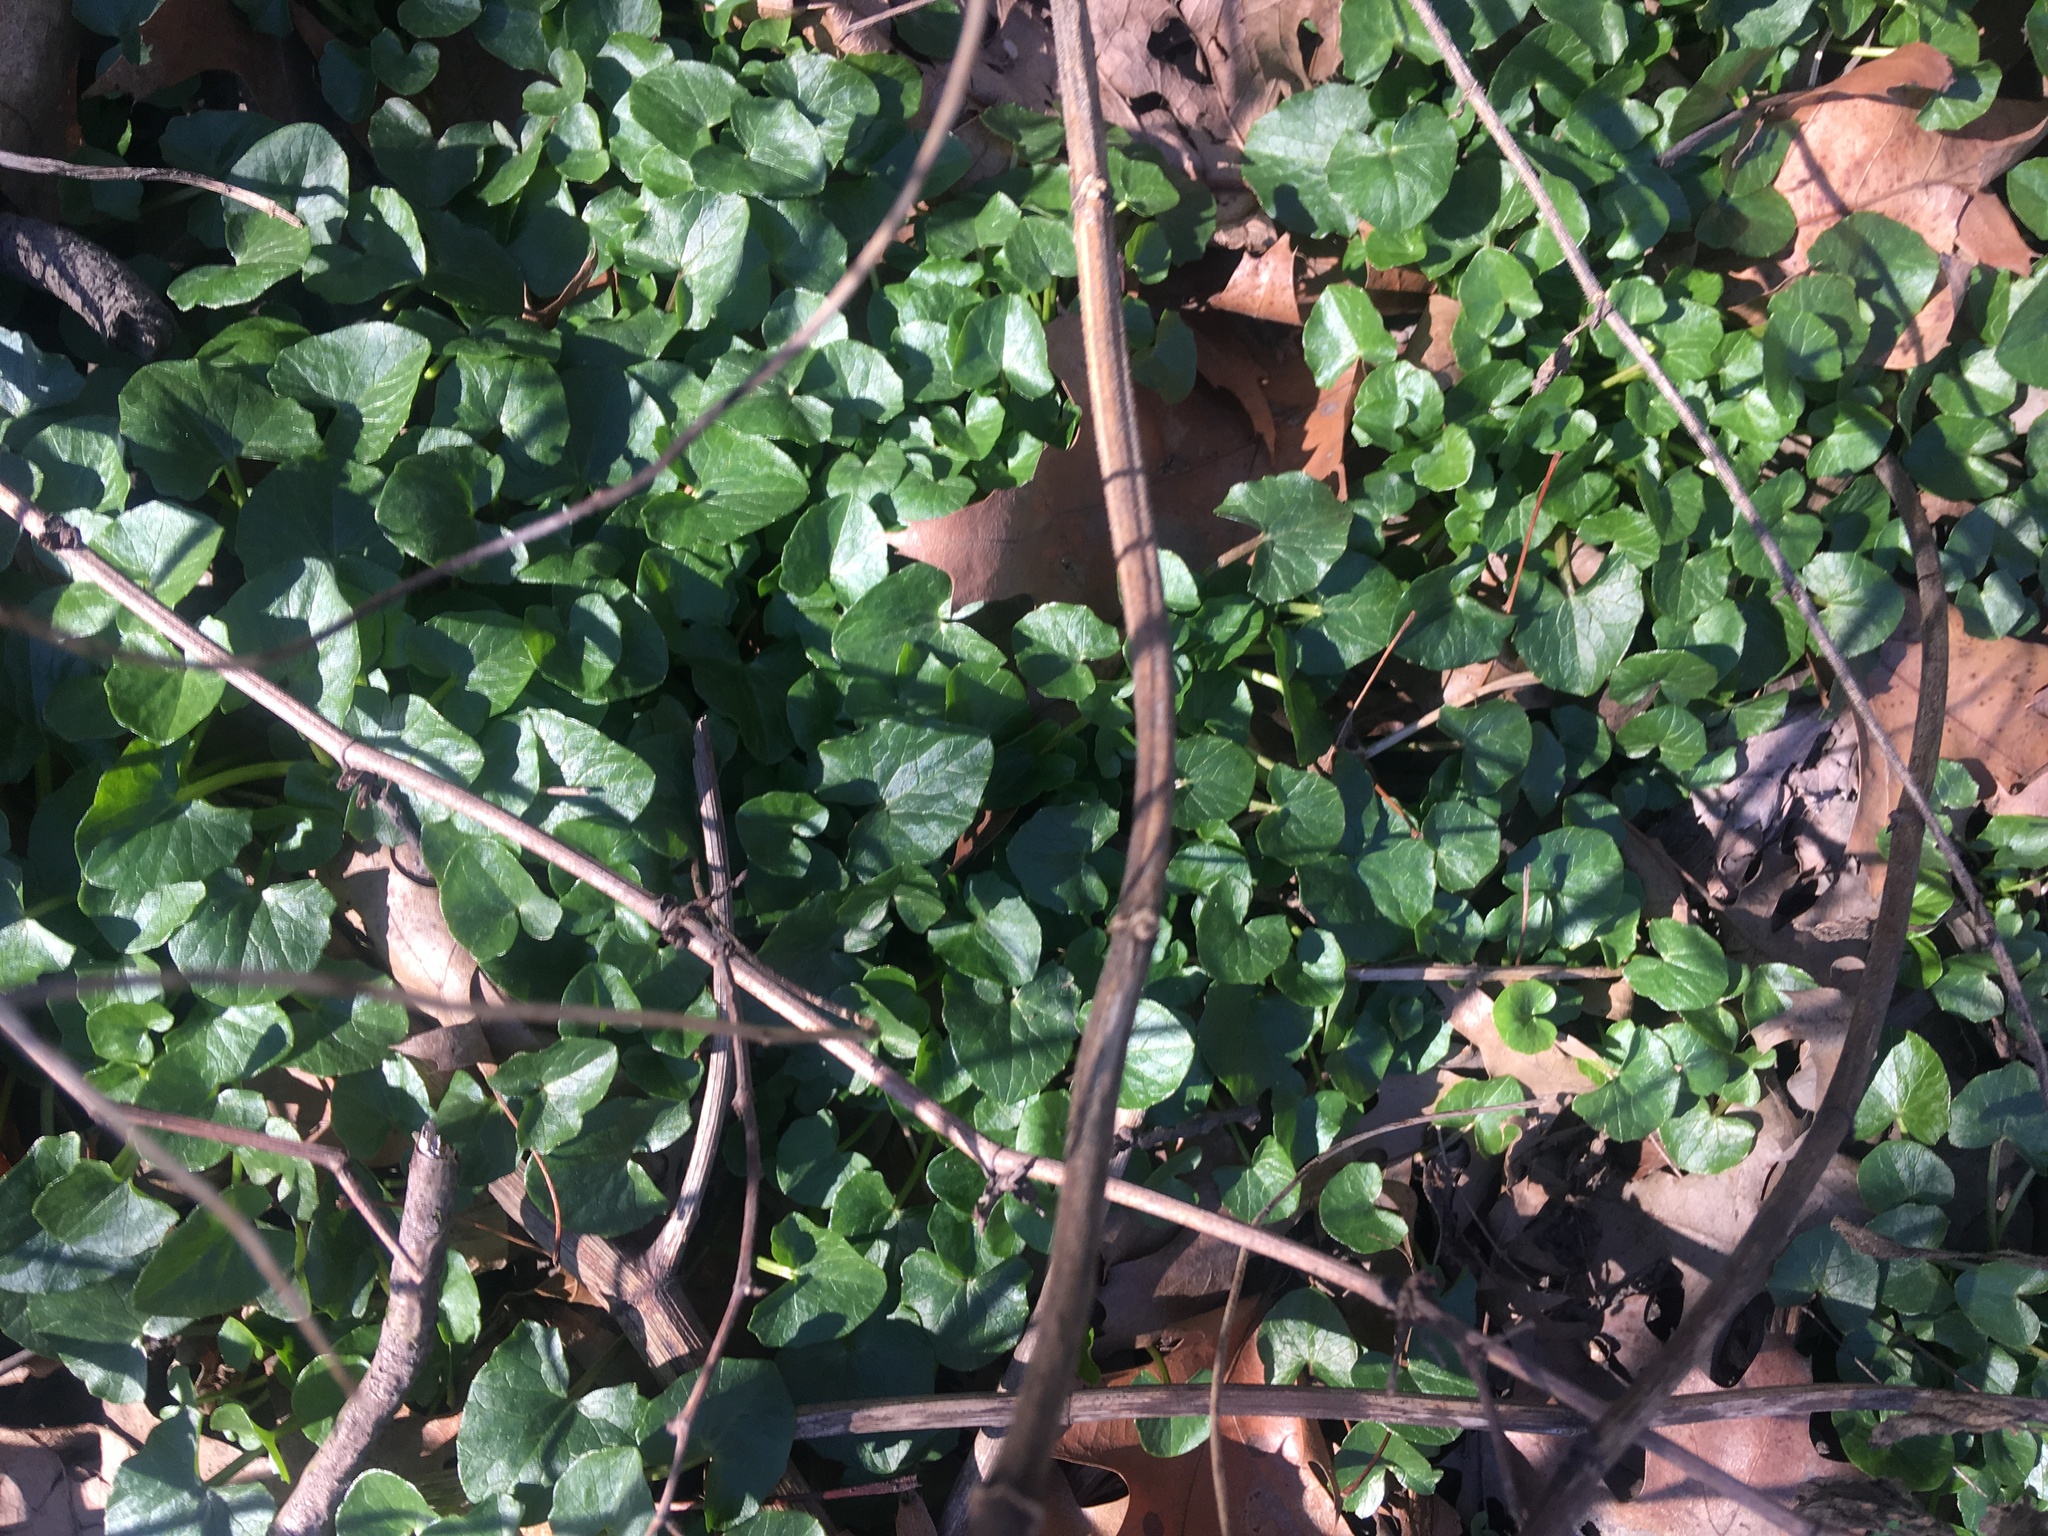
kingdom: Plantae
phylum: Tracheophyta
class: Magnoliopsida
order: Ranunculales
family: Ranunculaceae
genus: Ficaria
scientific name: Ficaria verna
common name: Lesser celandine
